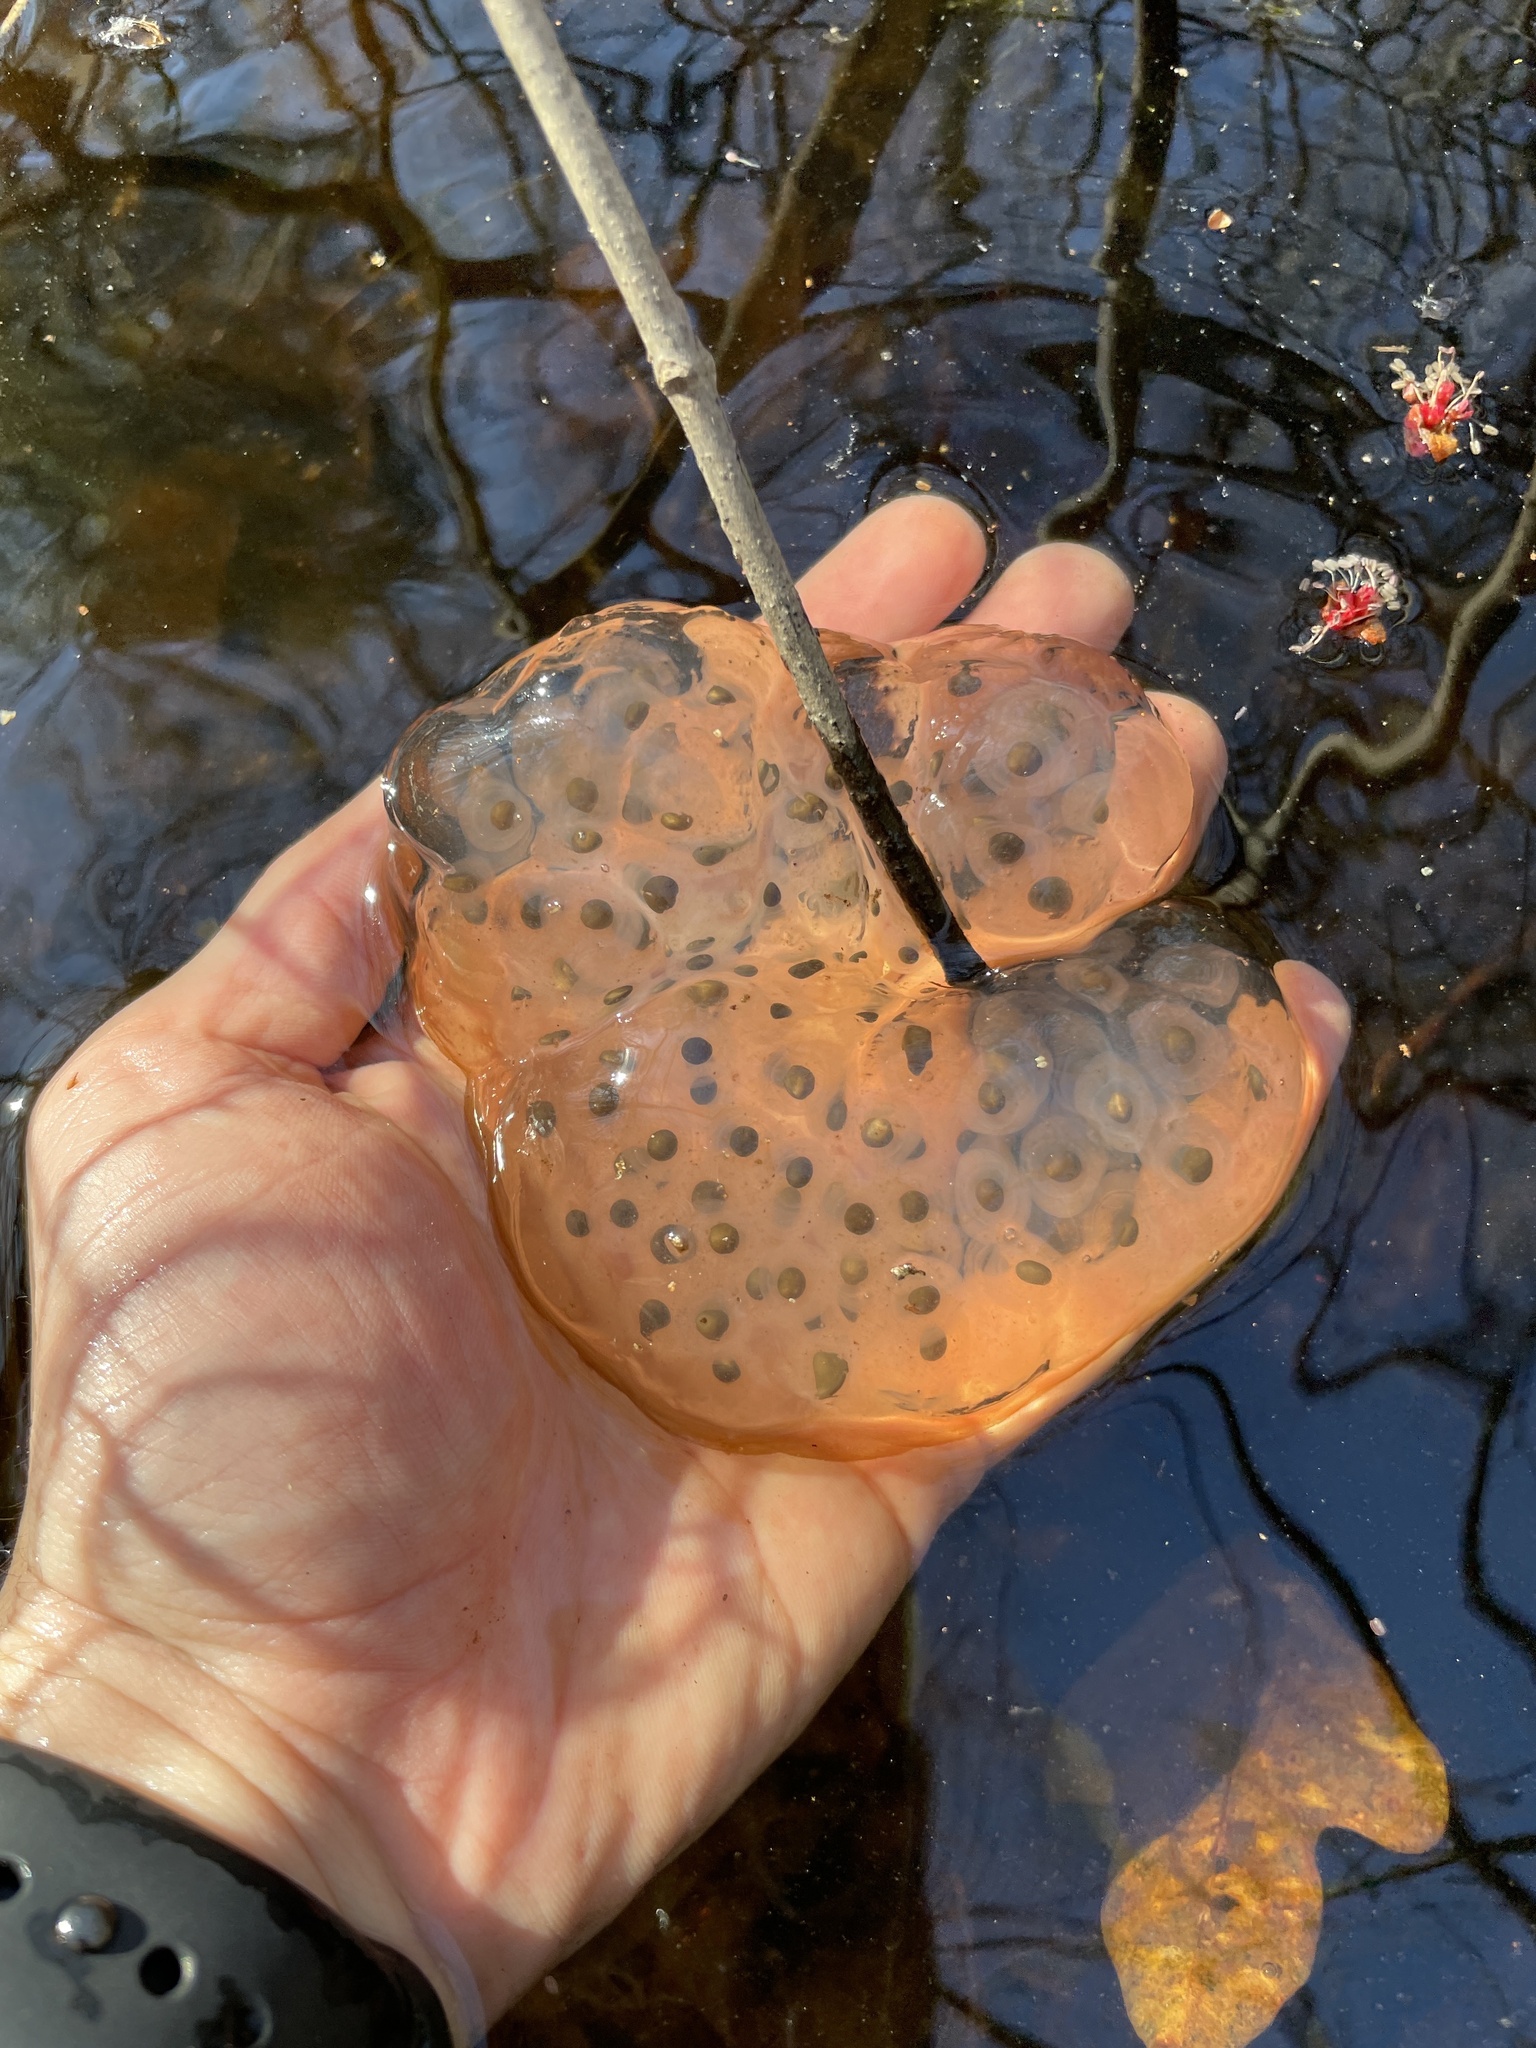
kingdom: Animalia
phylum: Chordata
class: Amphibia
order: Caudata
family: Ambystomatidae
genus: Ambystoma
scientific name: Ambystoma maculatum
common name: Spotted salamander
